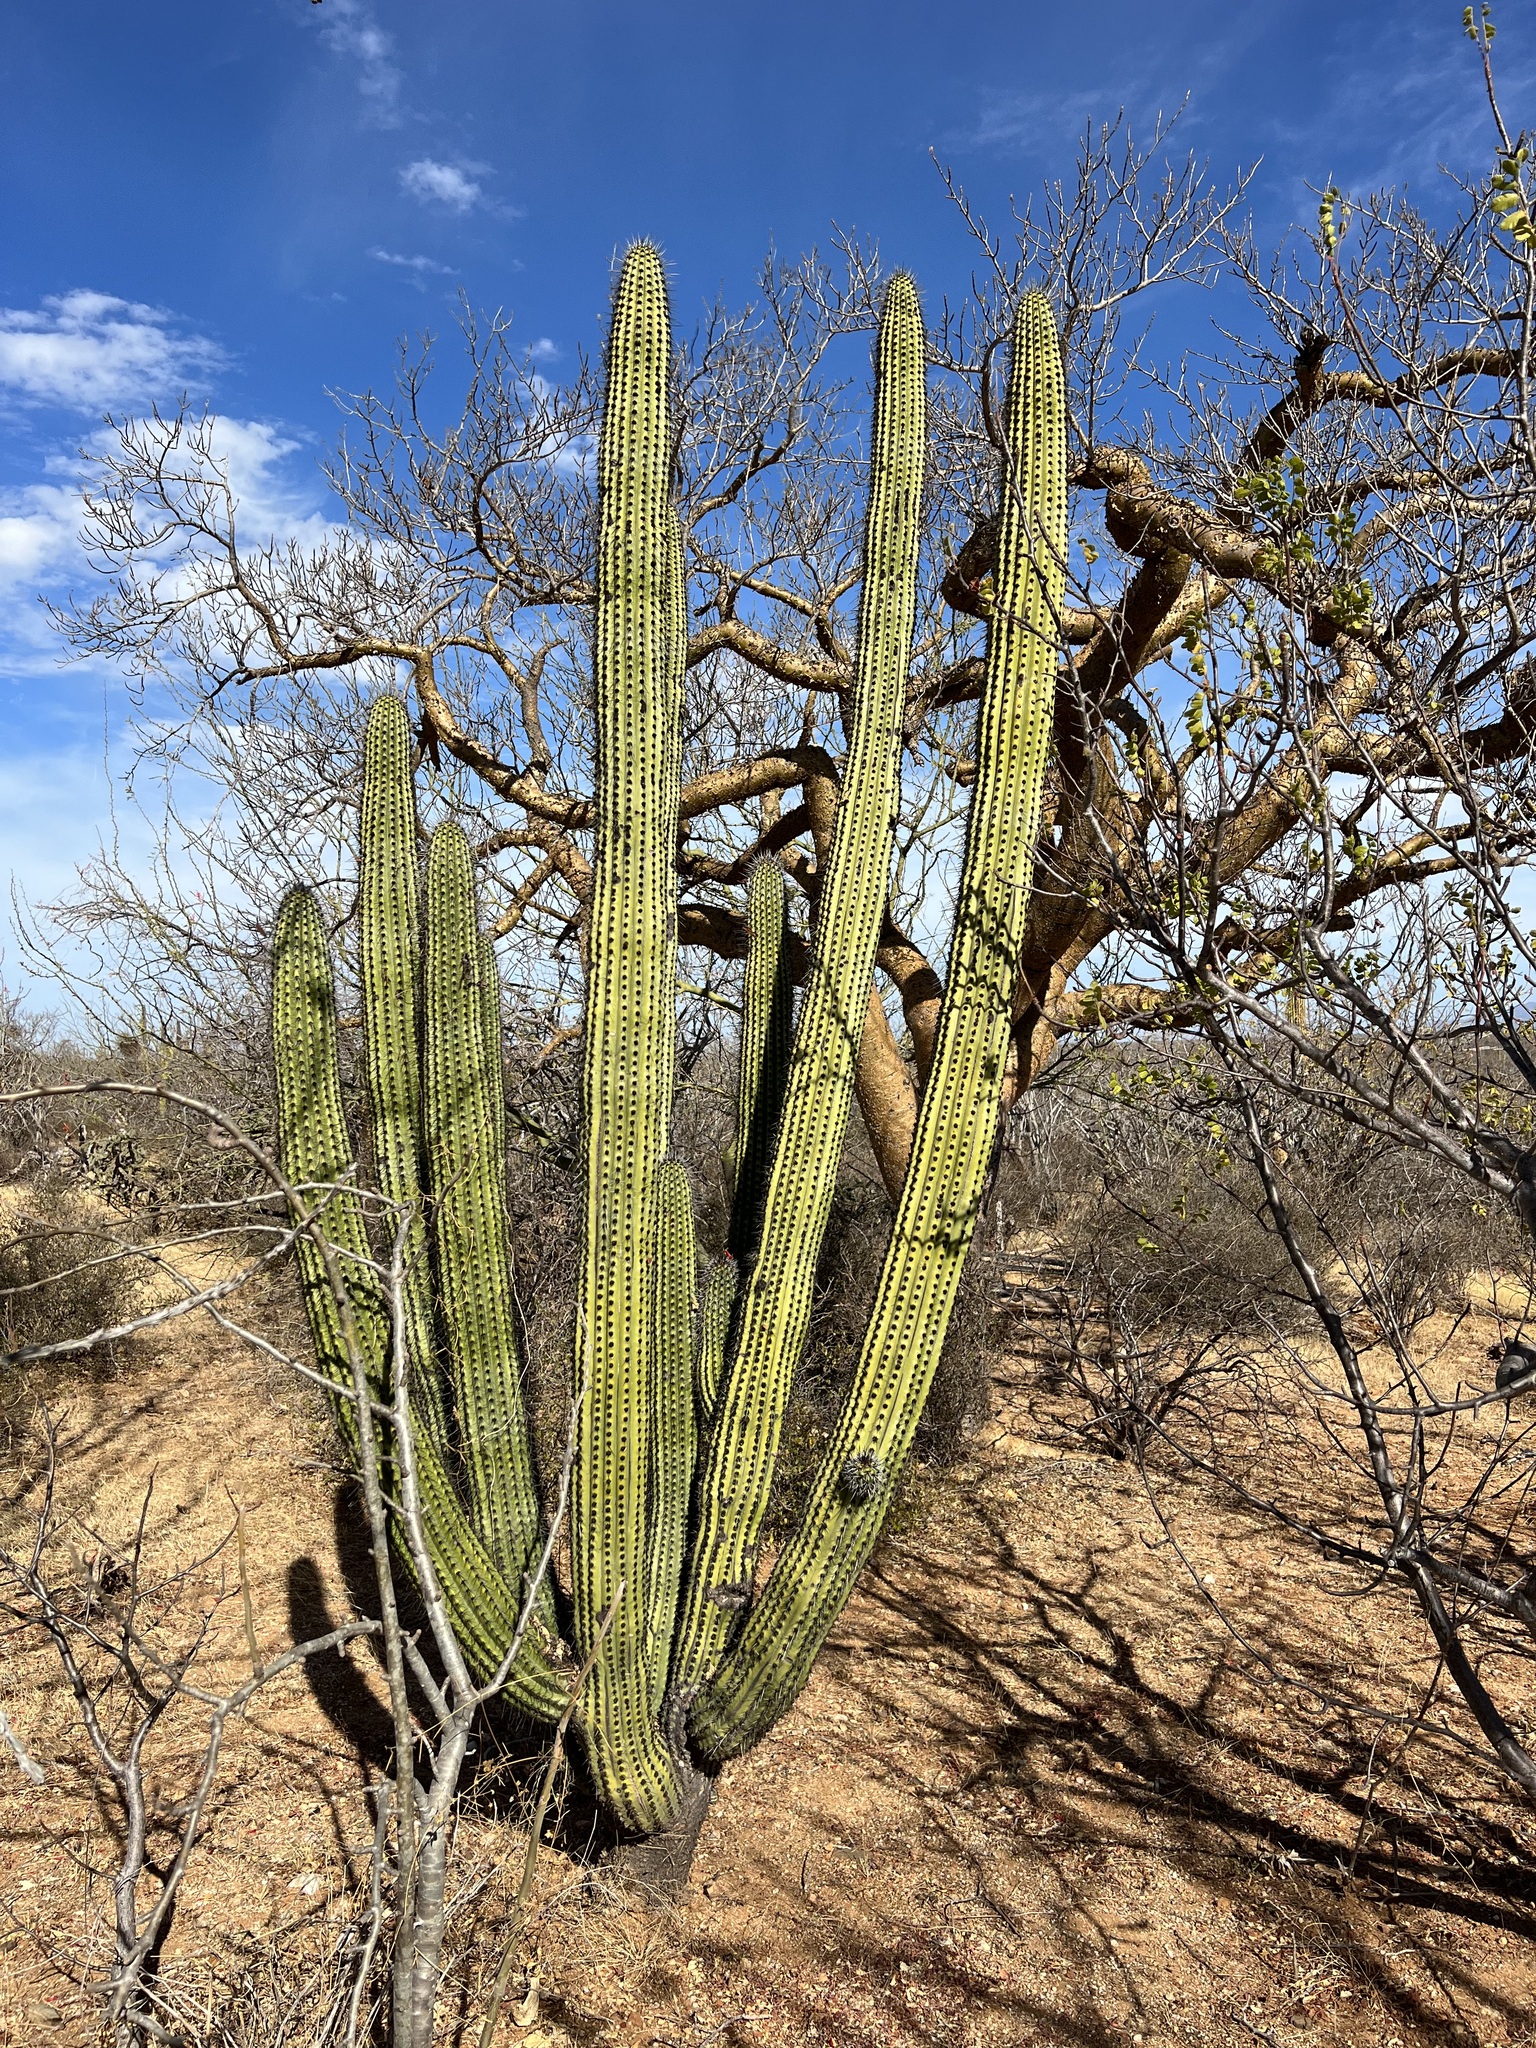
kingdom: Plantae
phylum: Tracheophyta
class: Magnoliopsida
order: Caryophyllales
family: Cactaceae
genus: Stenocereus
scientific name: Stenocereus thurberi
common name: Organ pipe cactus
